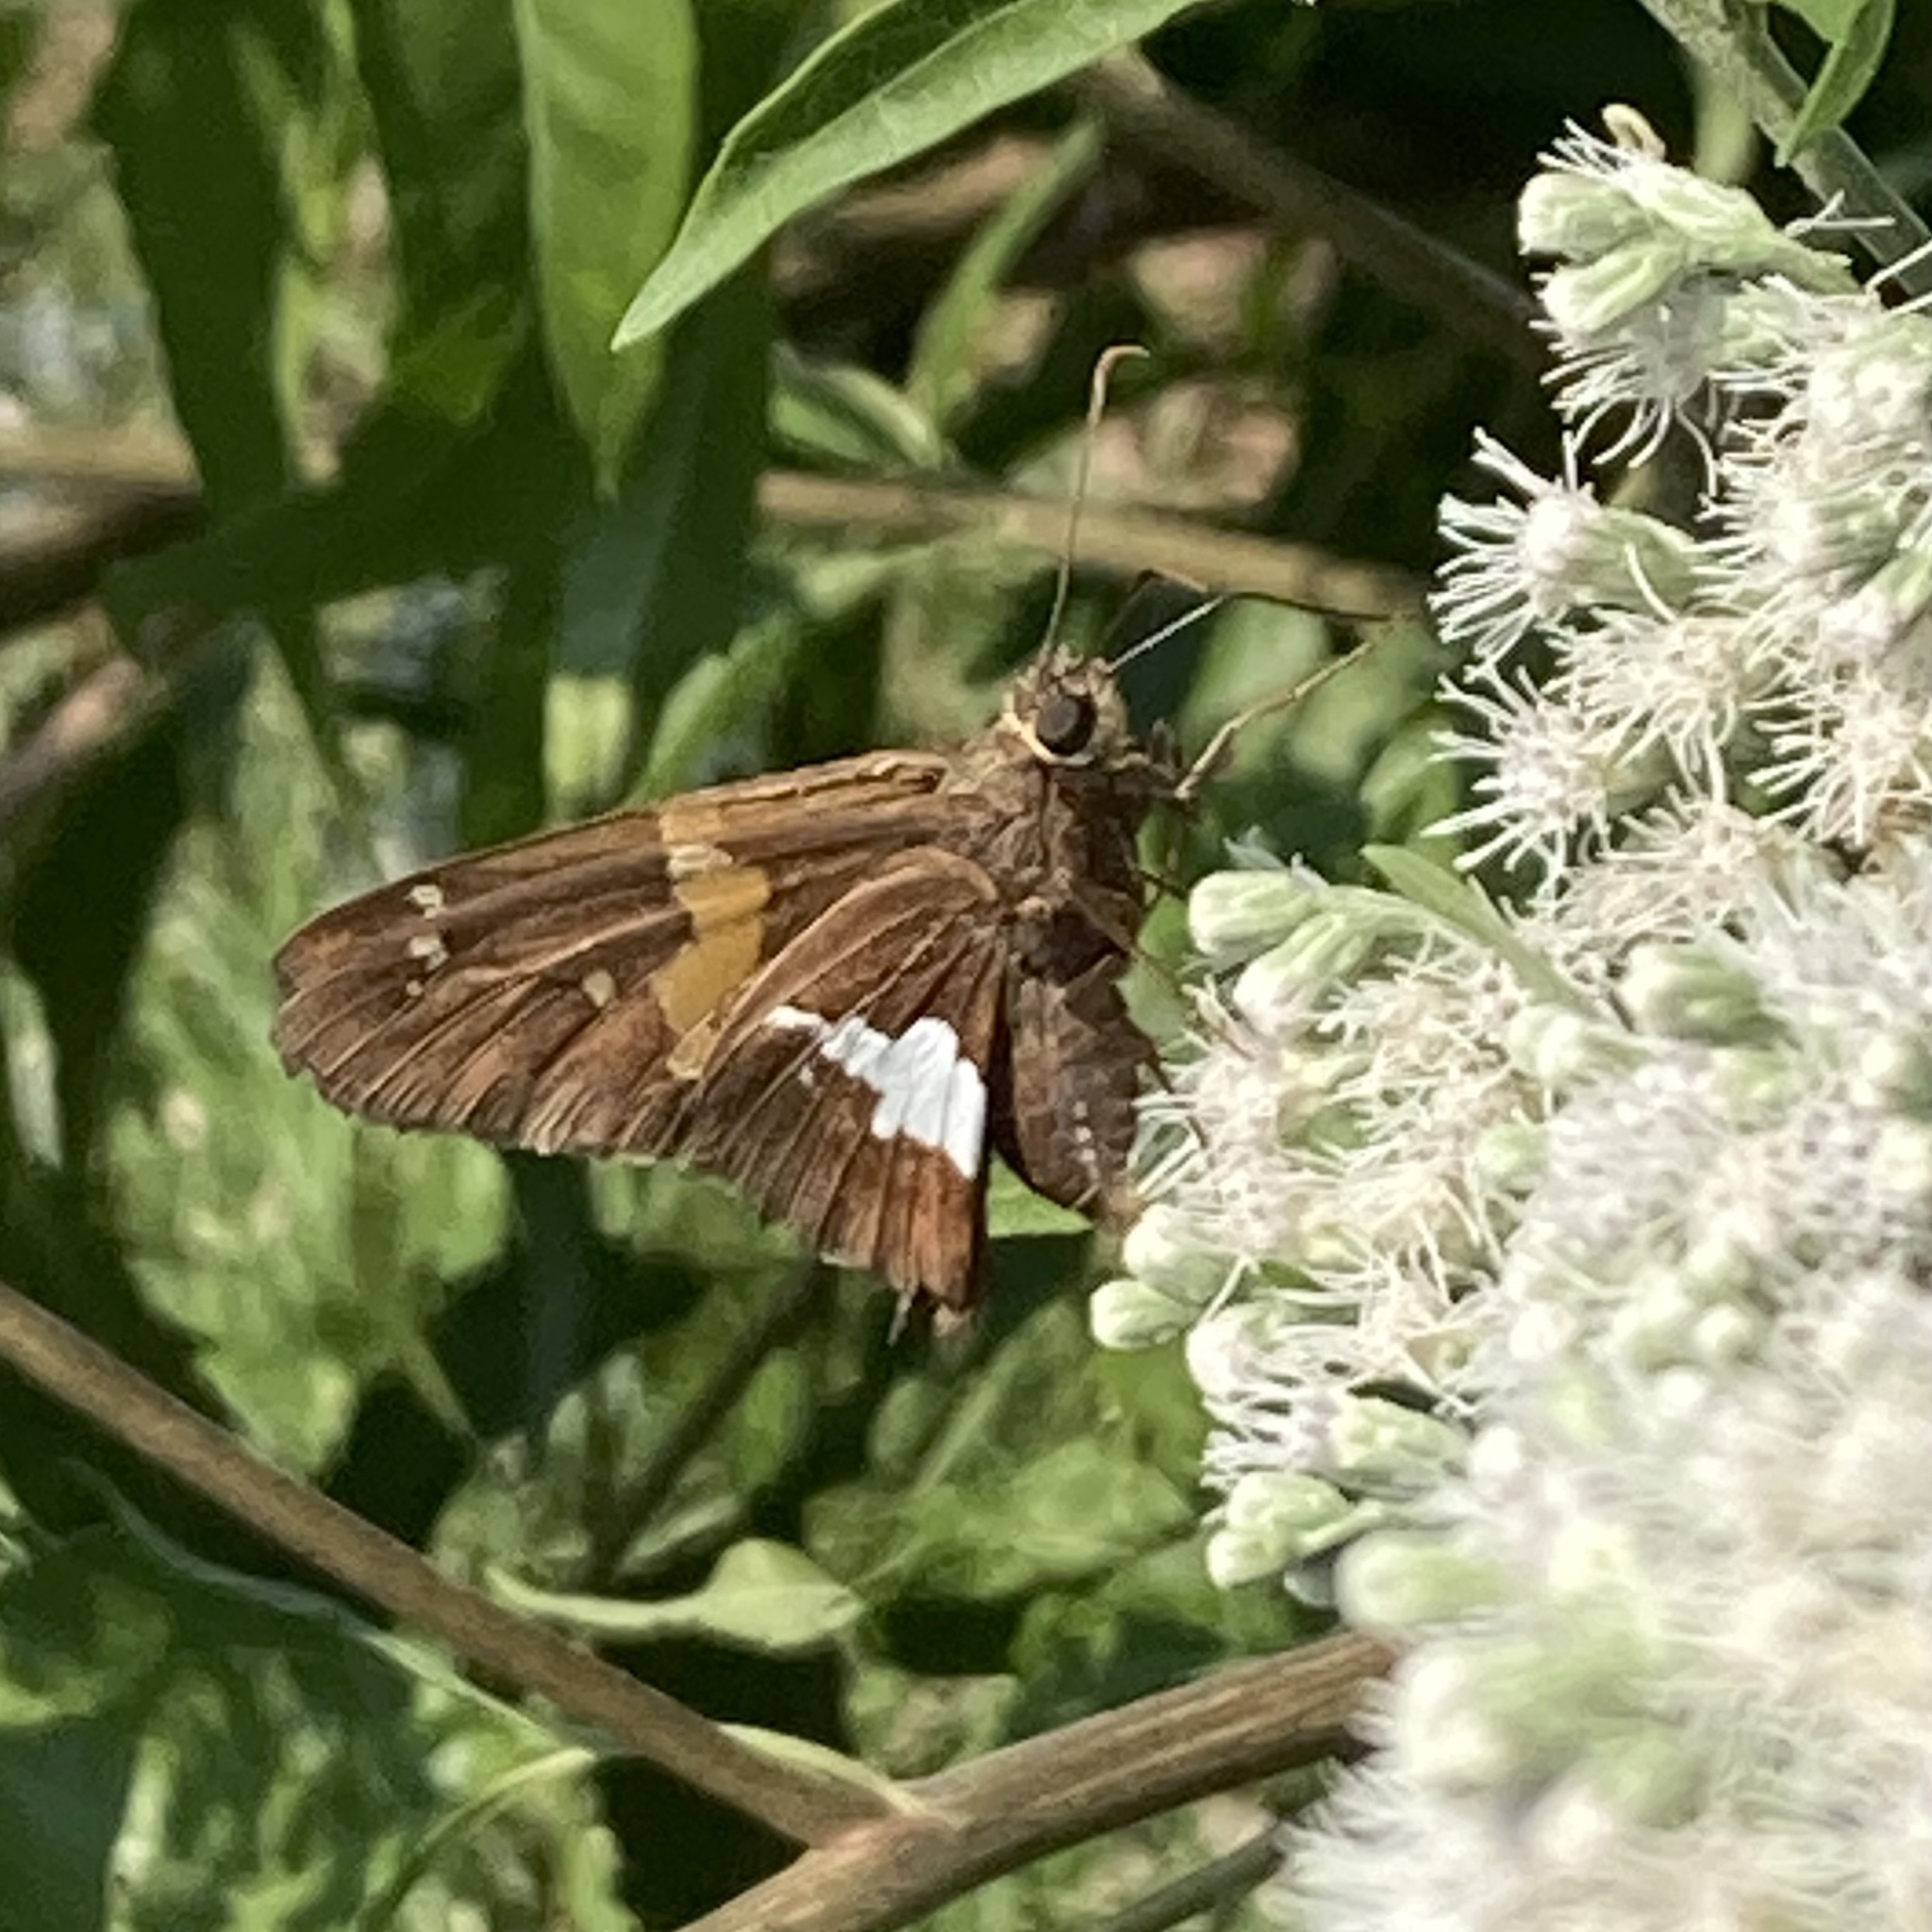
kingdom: Animalia
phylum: Arthropoda
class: Insecta
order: Lepidoptera
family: Hesperiidae
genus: Epargyreus
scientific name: Epargyreus clarus
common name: Silver-spotted skipper
